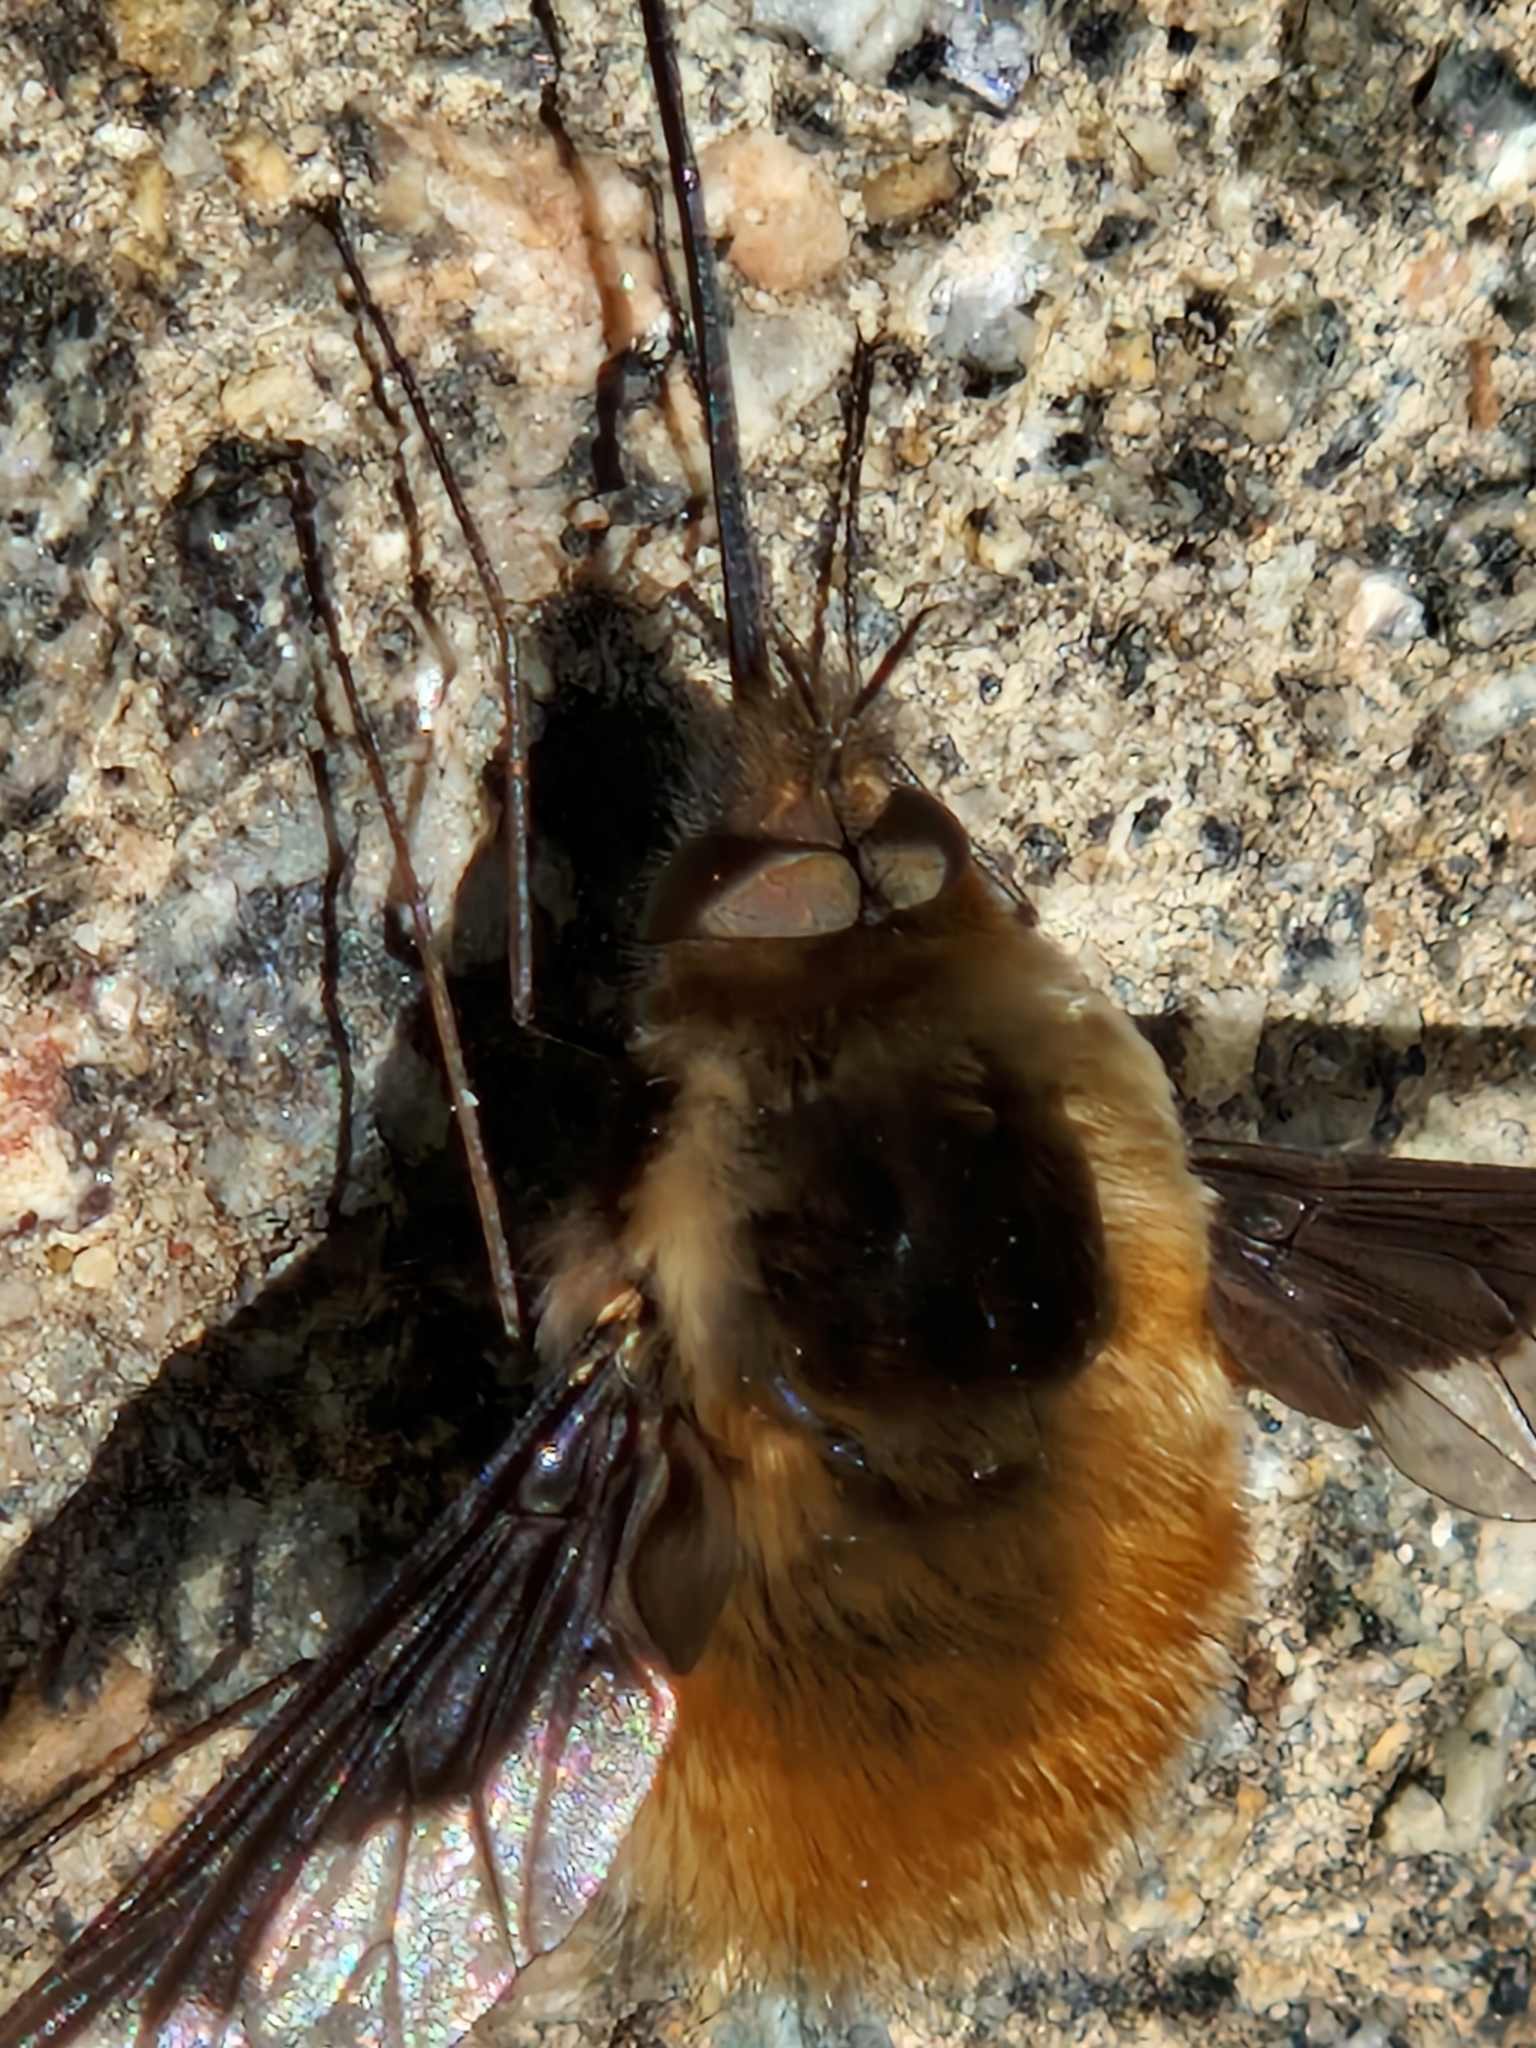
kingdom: Animalia
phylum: Arthropoda
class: Insecta
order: Diptera
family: Bombyliidae
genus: Bombylius
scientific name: Bombylius major
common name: Bee fly
